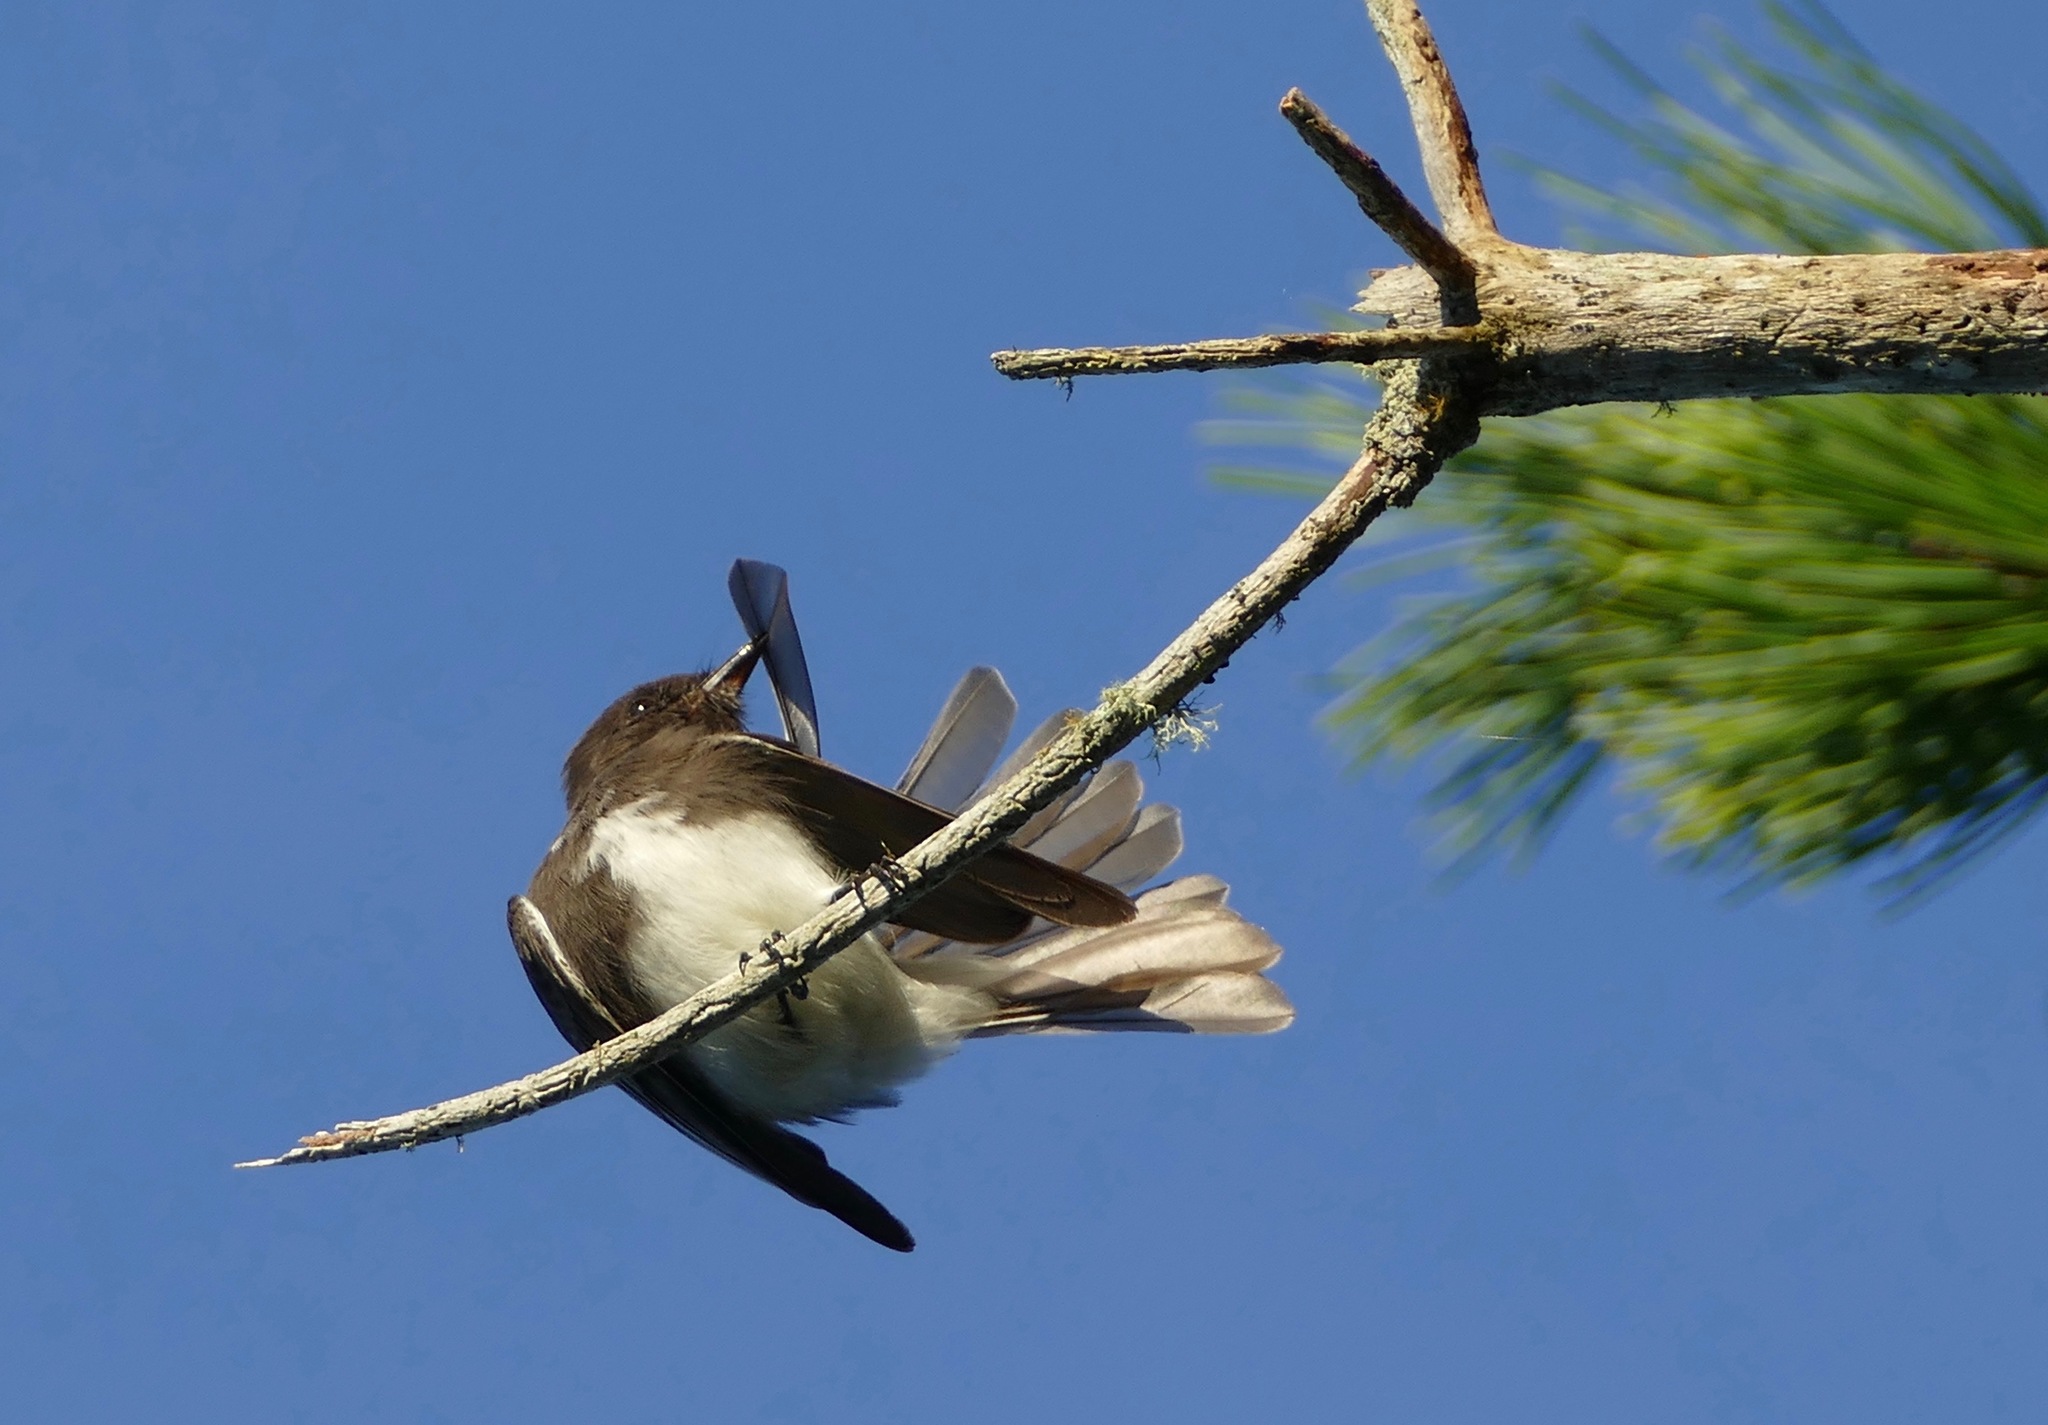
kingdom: Animalia
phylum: Chordata
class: Aves
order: Passeriformes
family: Tyrannidae
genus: Sayornis
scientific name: Sayornis nigricans
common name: Black phoebe
